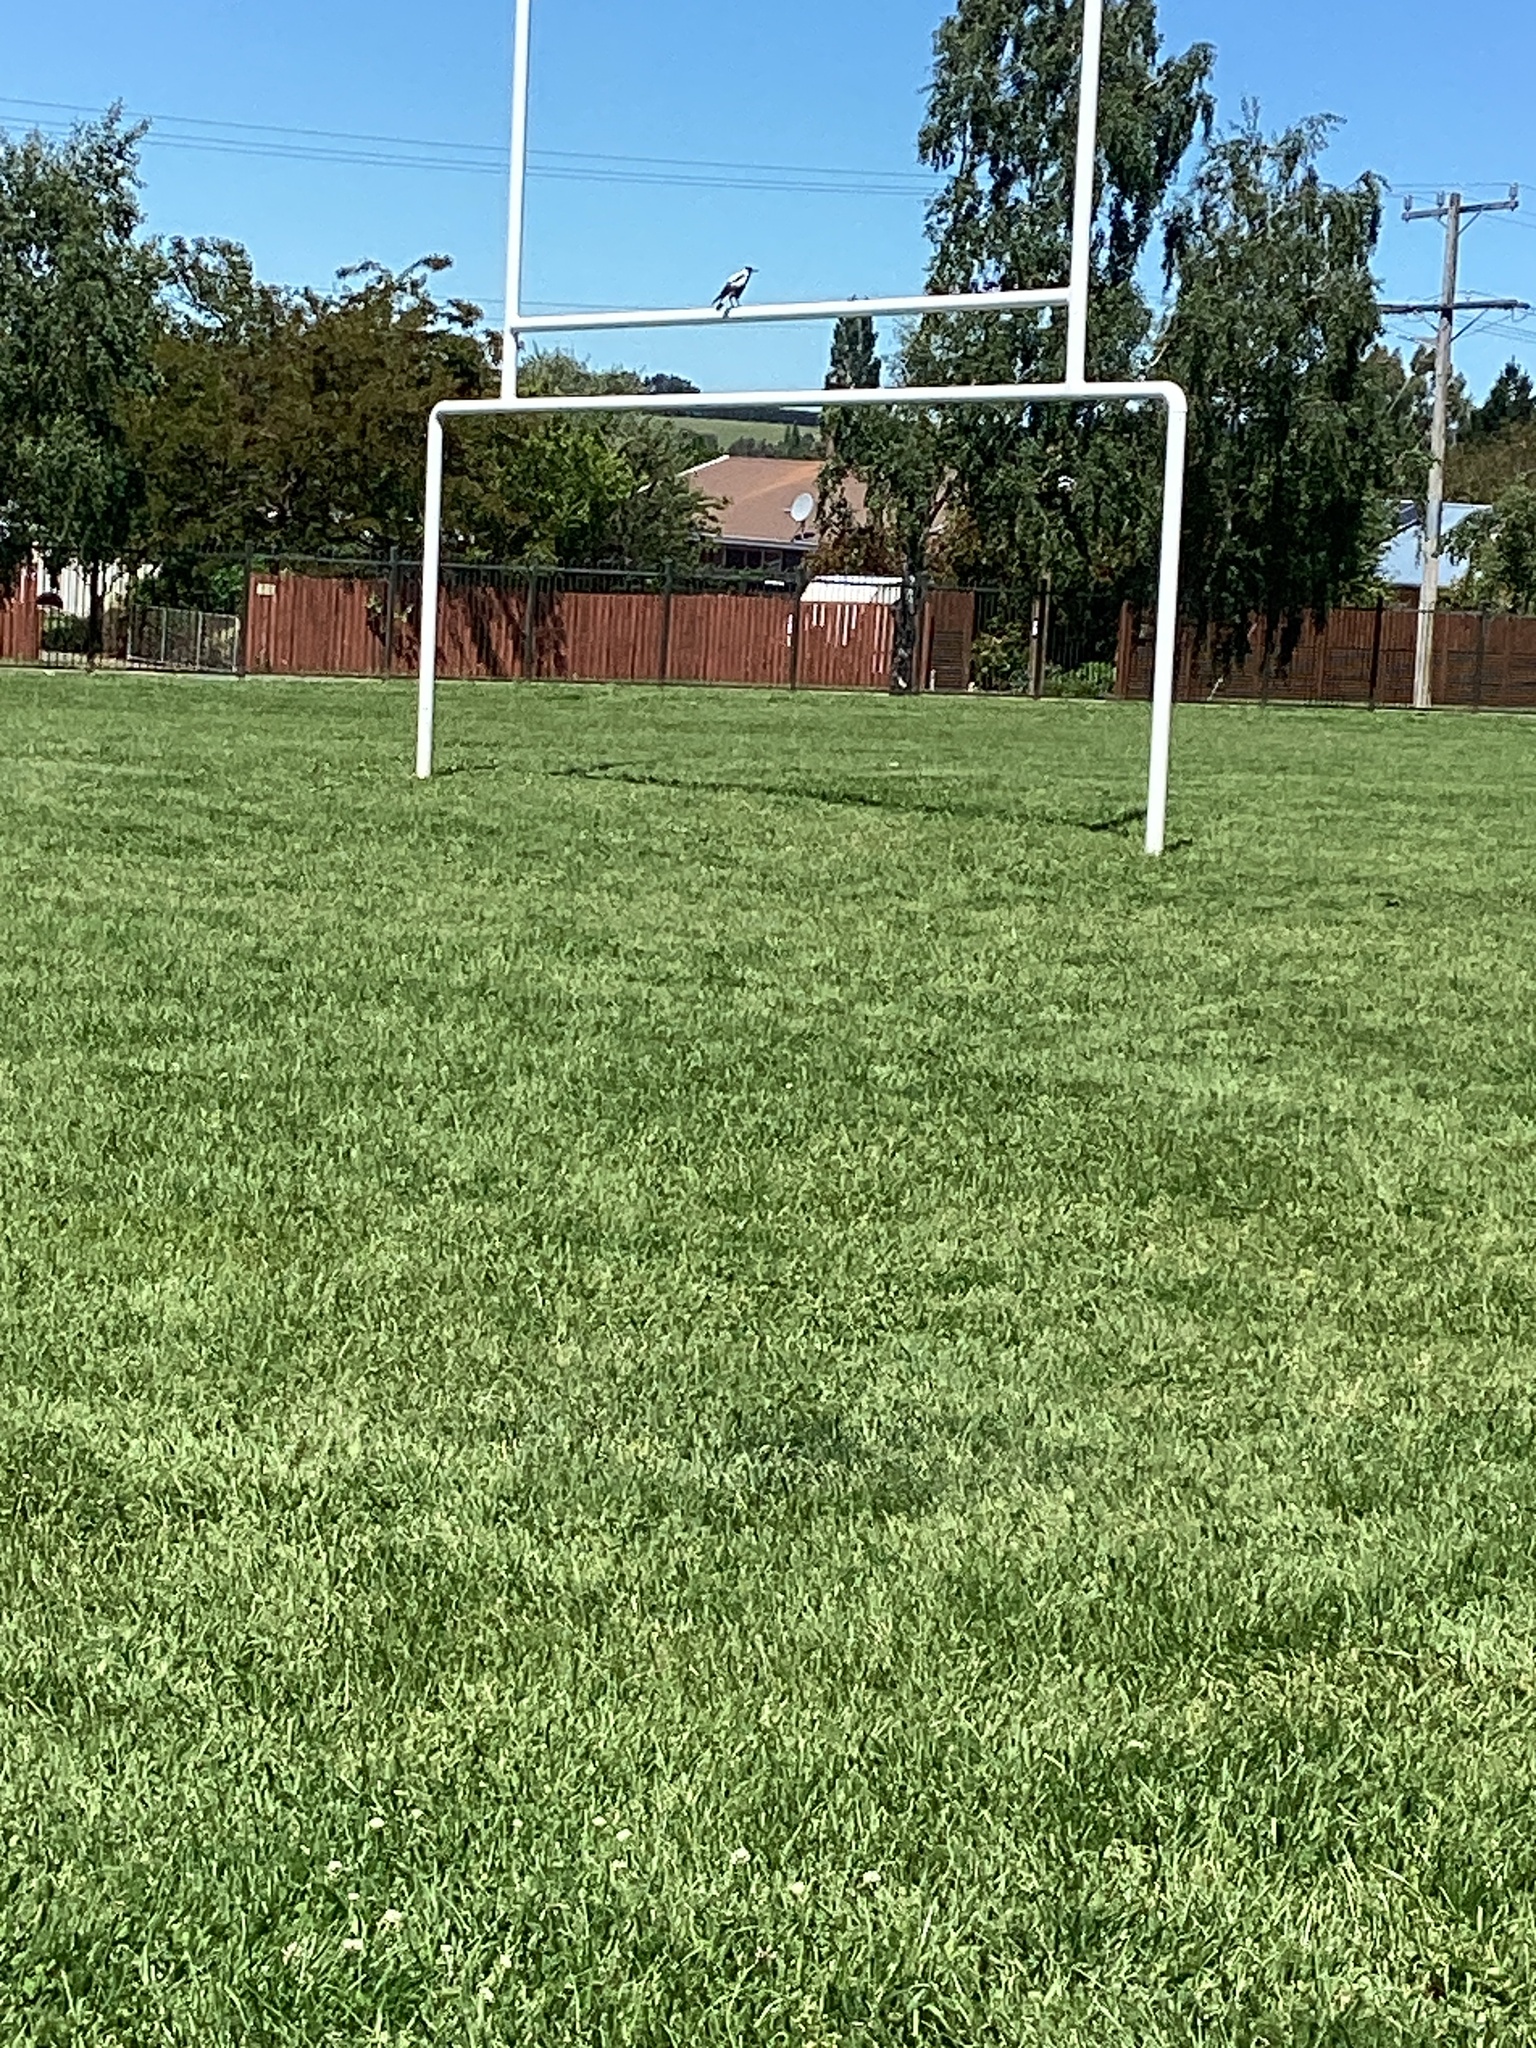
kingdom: Animalia
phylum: Chordata
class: Aves
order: Passeriformes
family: Cracticidae
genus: Gymnorhina
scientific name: Gymnorhina tibicen
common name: Australian magpie
